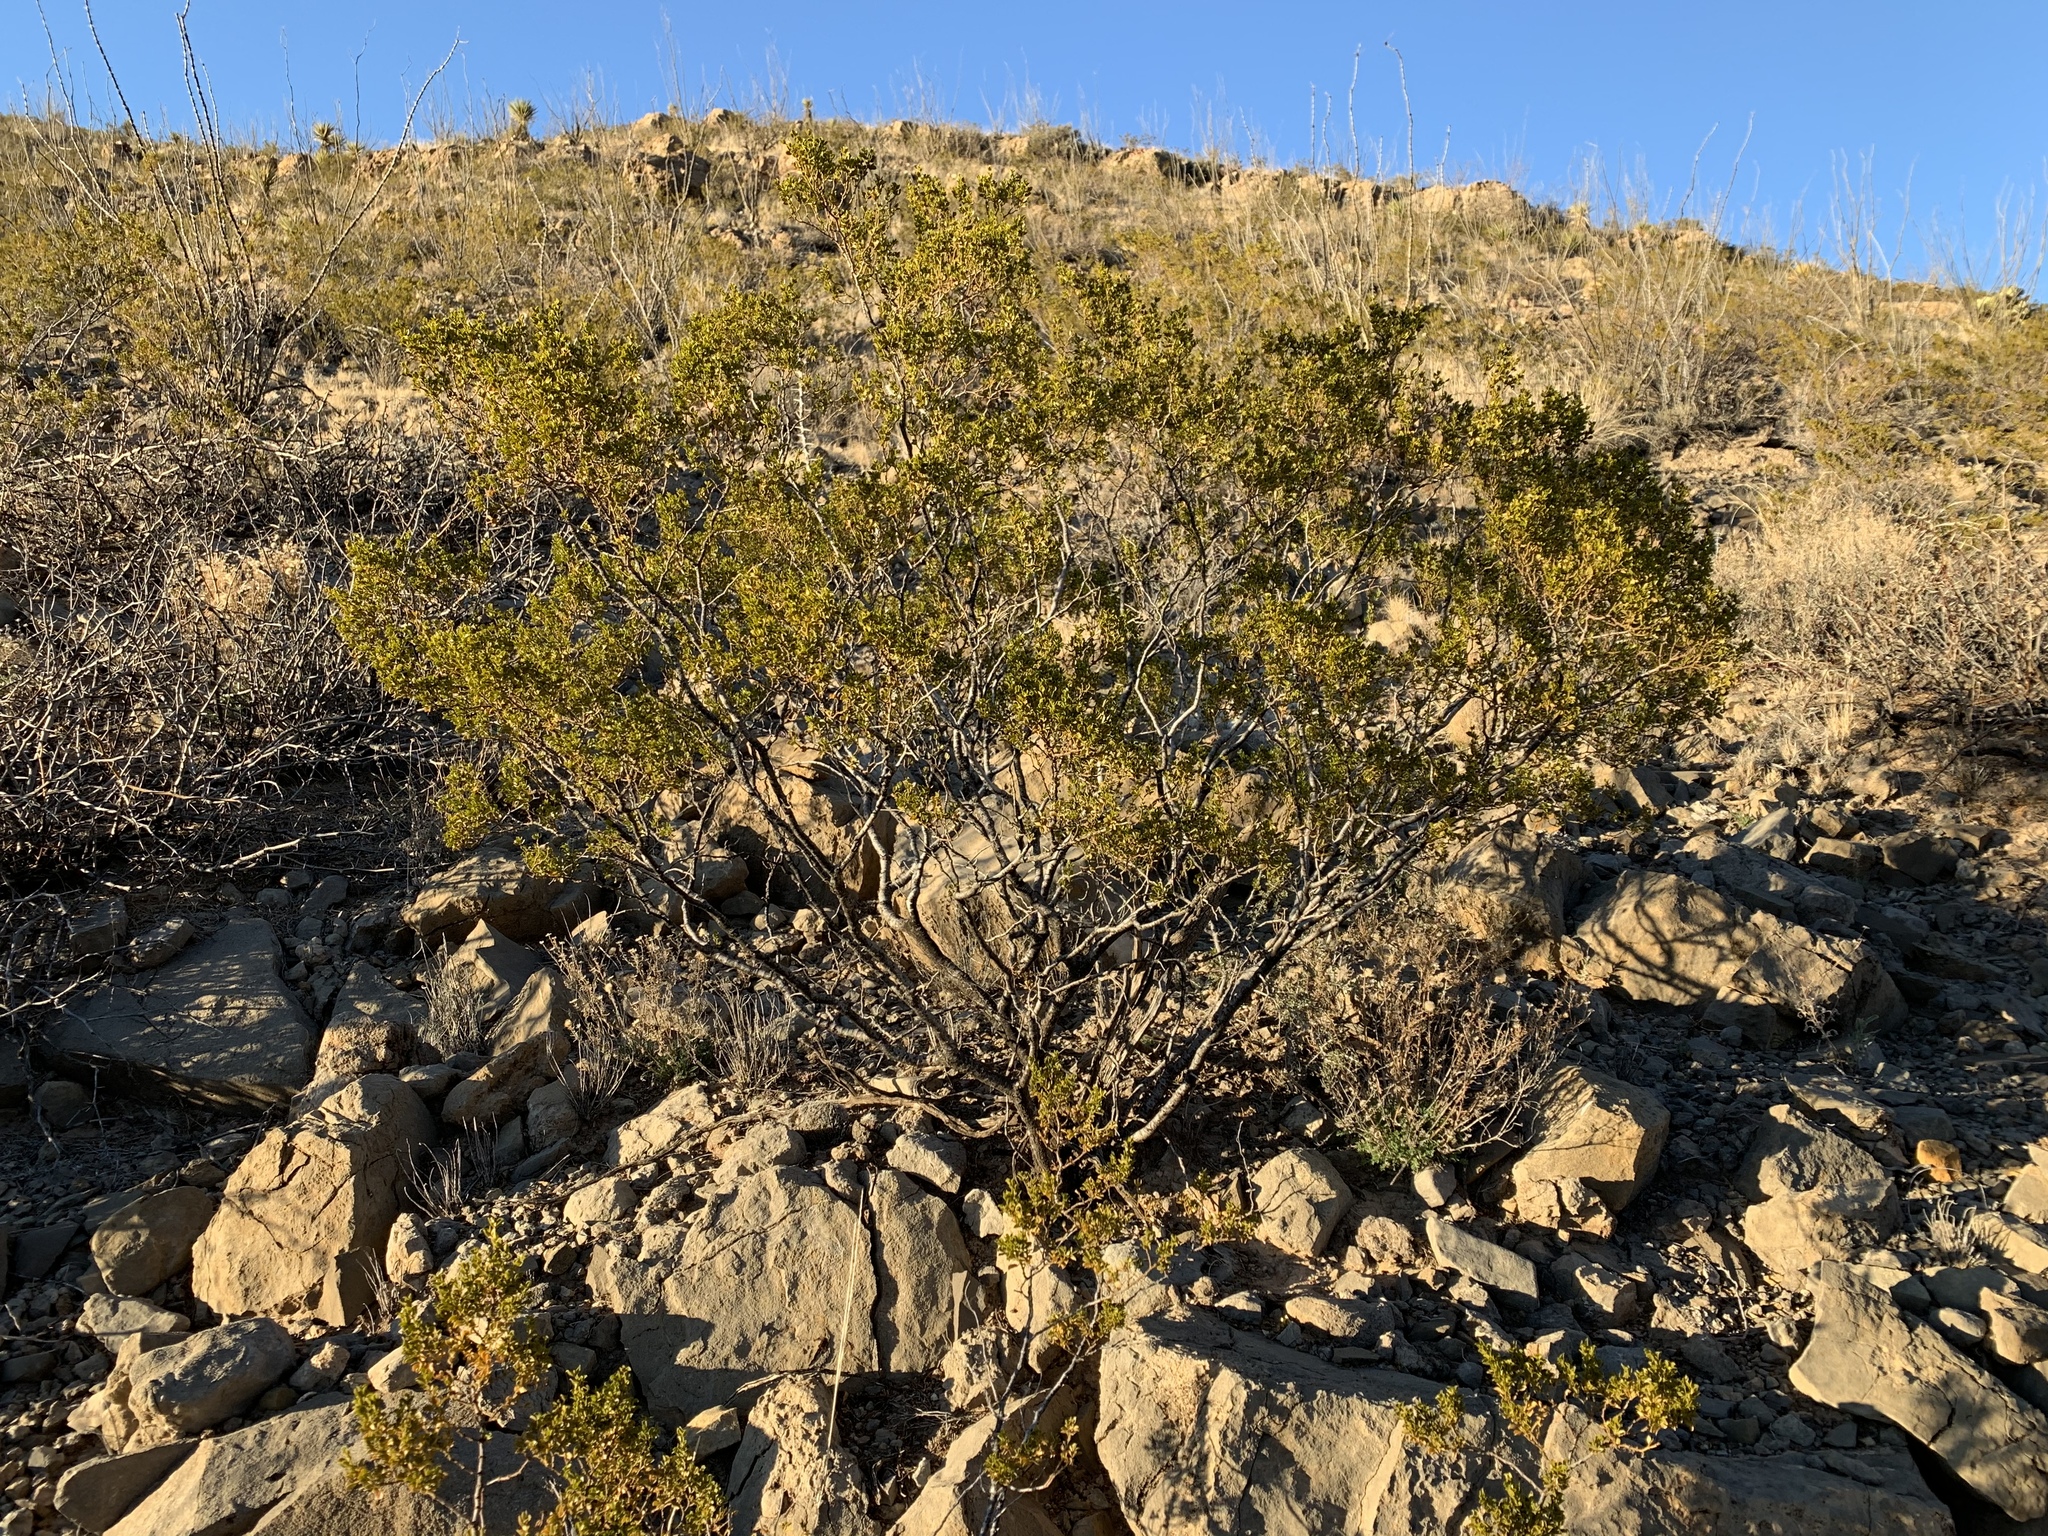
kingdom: Plantae
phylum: Tracheophyta
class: Magnoliopsida
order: Zygophyllales
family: Zygophyllaceae
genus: Larrea
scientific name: Larrea tridentata
